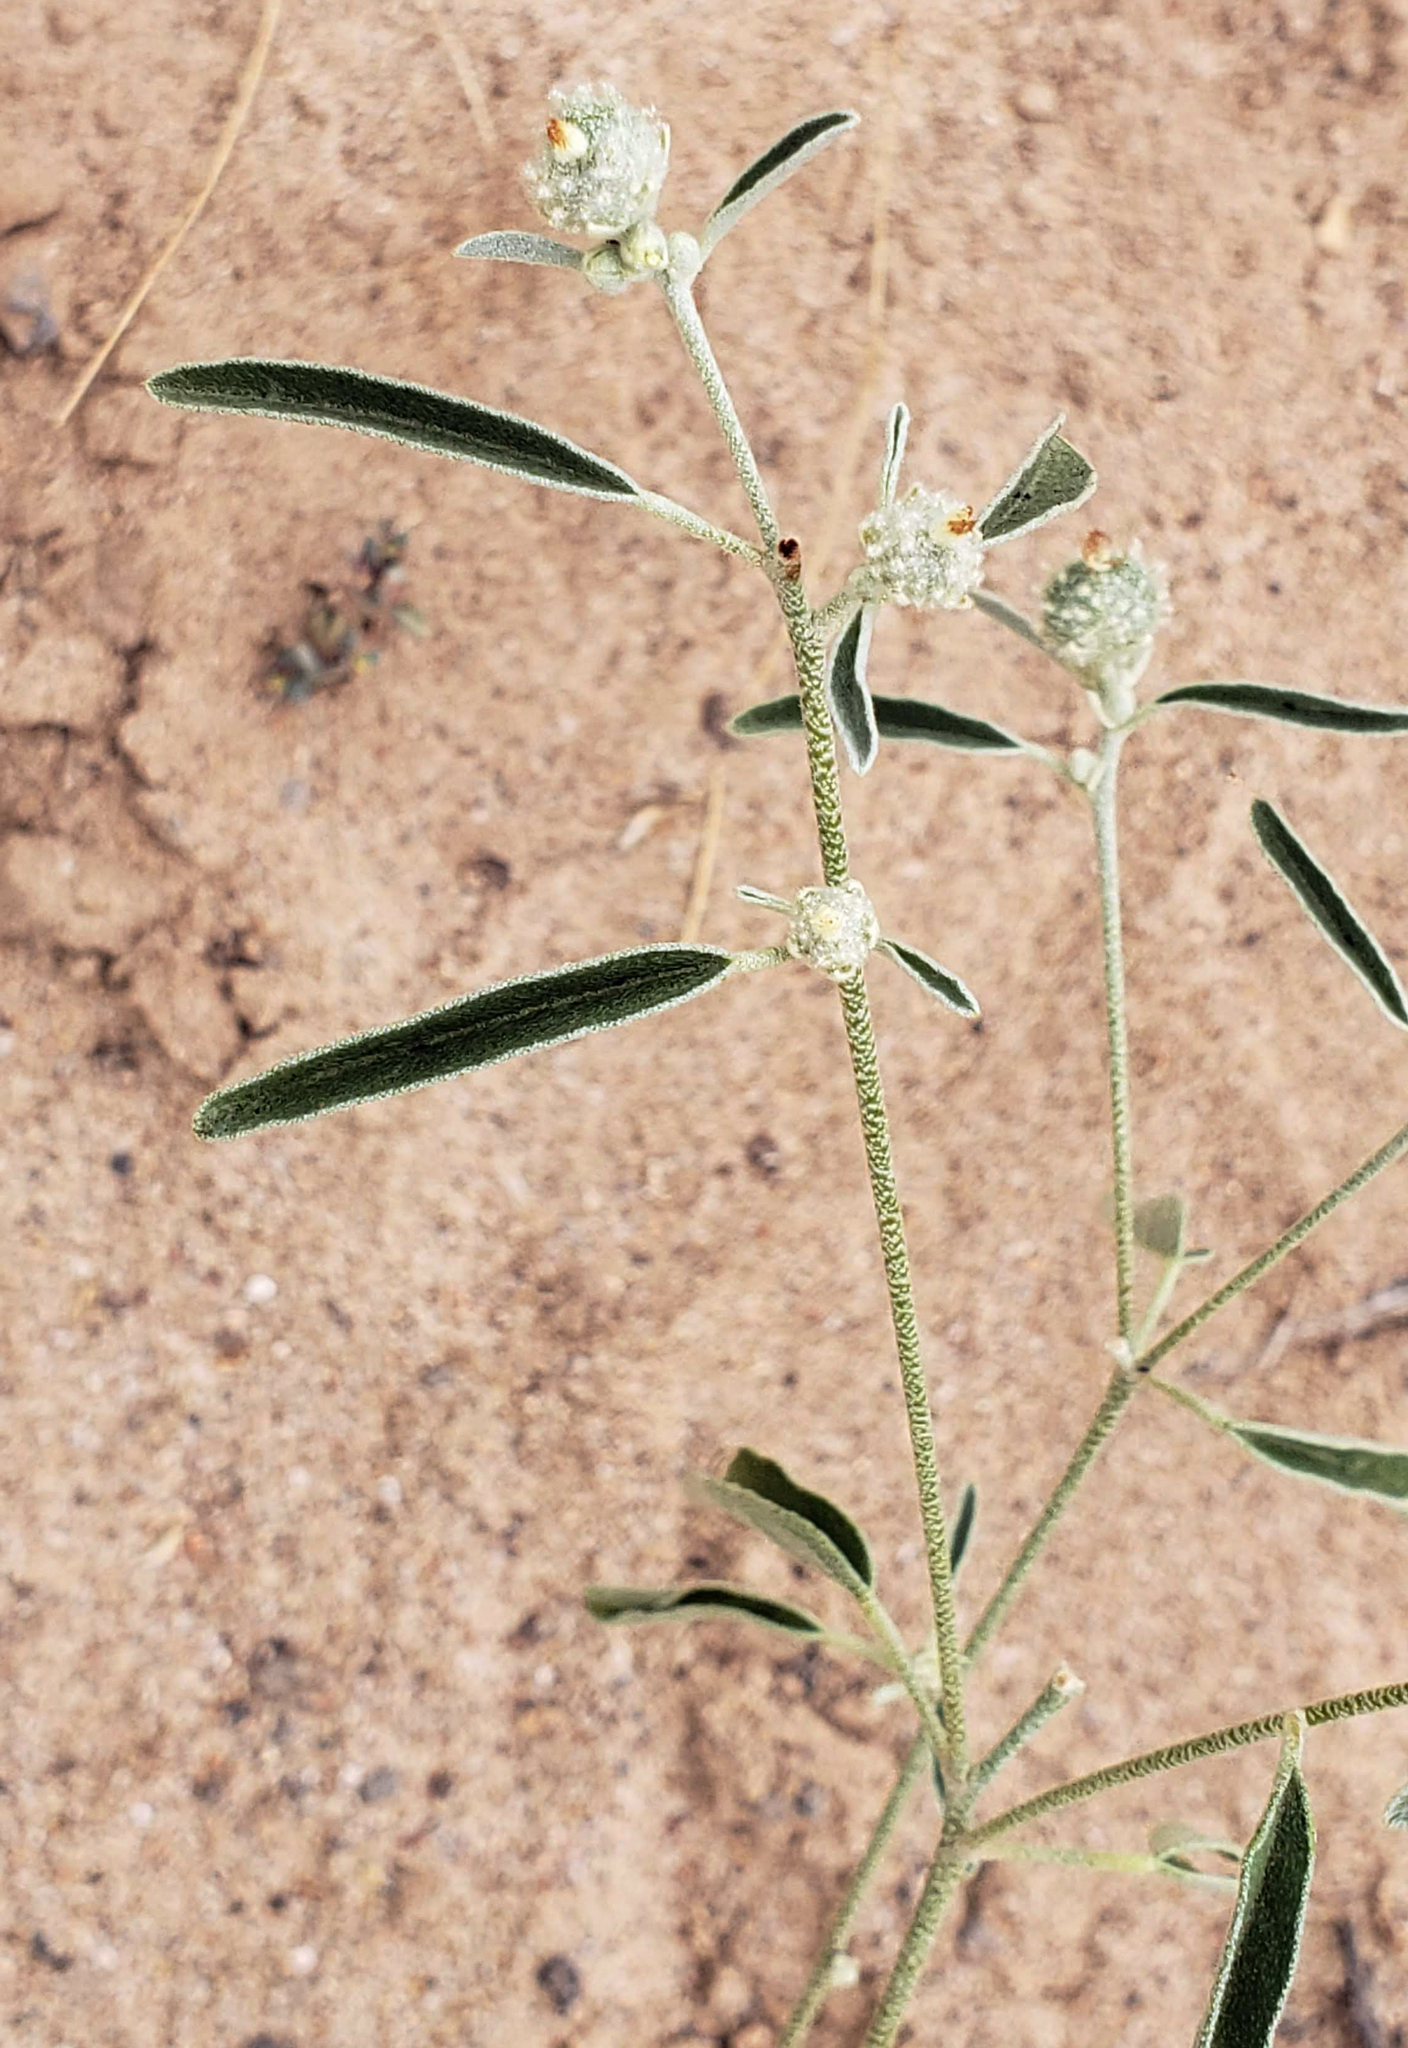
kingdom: Plantae
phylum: Tracheophyta
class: Magnoliopsida
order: Malpighiales
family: Euphorbiaceae
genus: Croton
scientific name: Croton texensis
